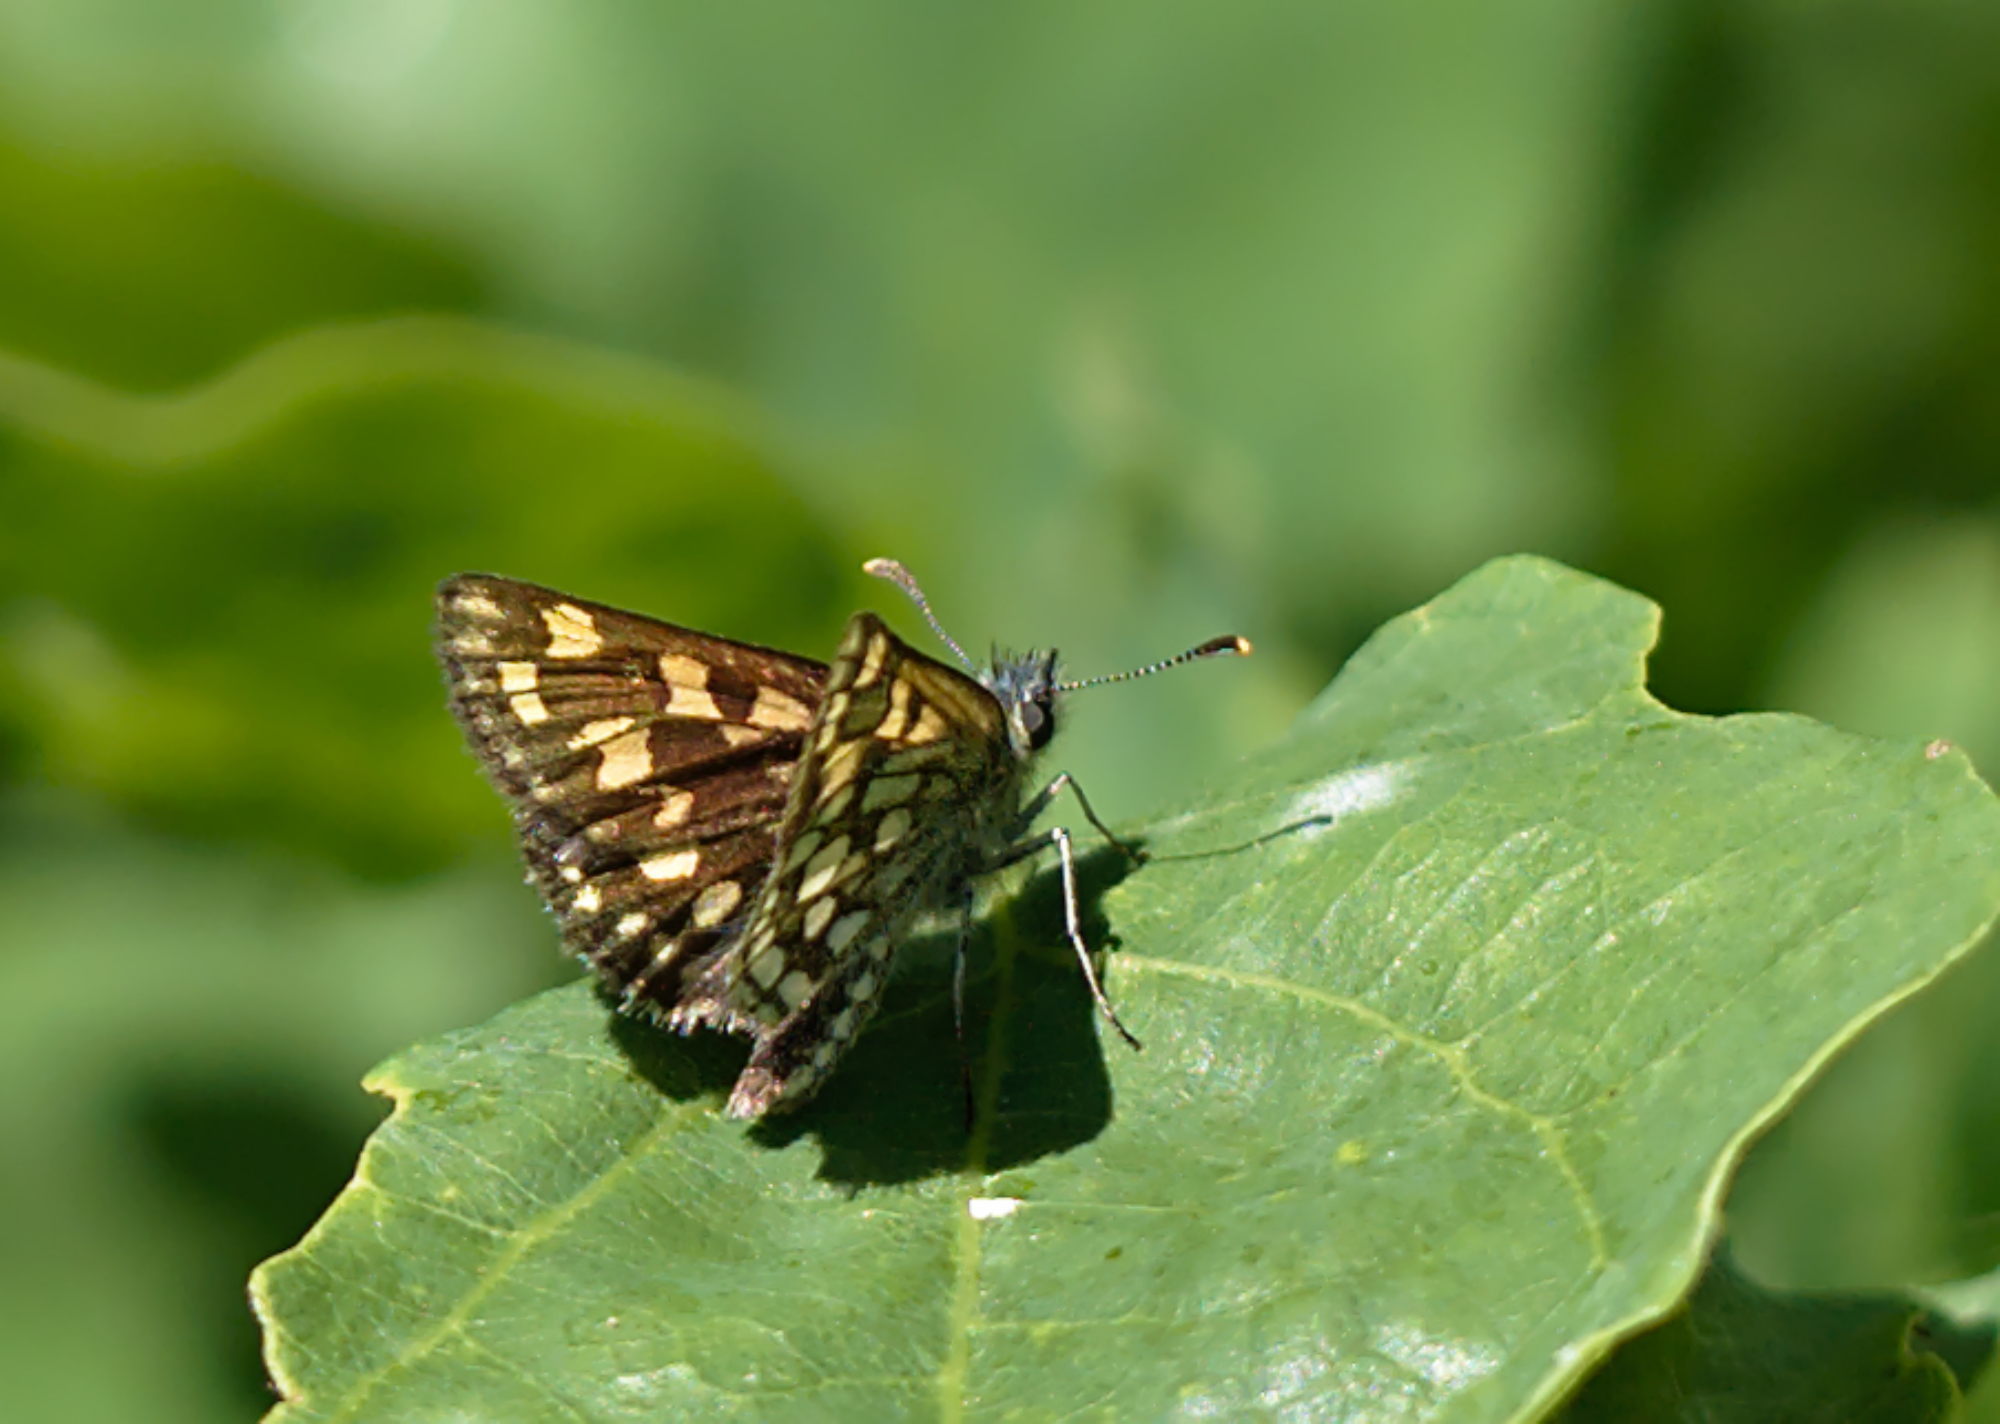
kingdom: Animalia
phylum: Arthropoda
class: Insecta
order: Lepidoptera
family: Hesperiidae
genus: Carterocephalus
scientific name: Carterocephalus palaemon
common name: Chequered skipper
